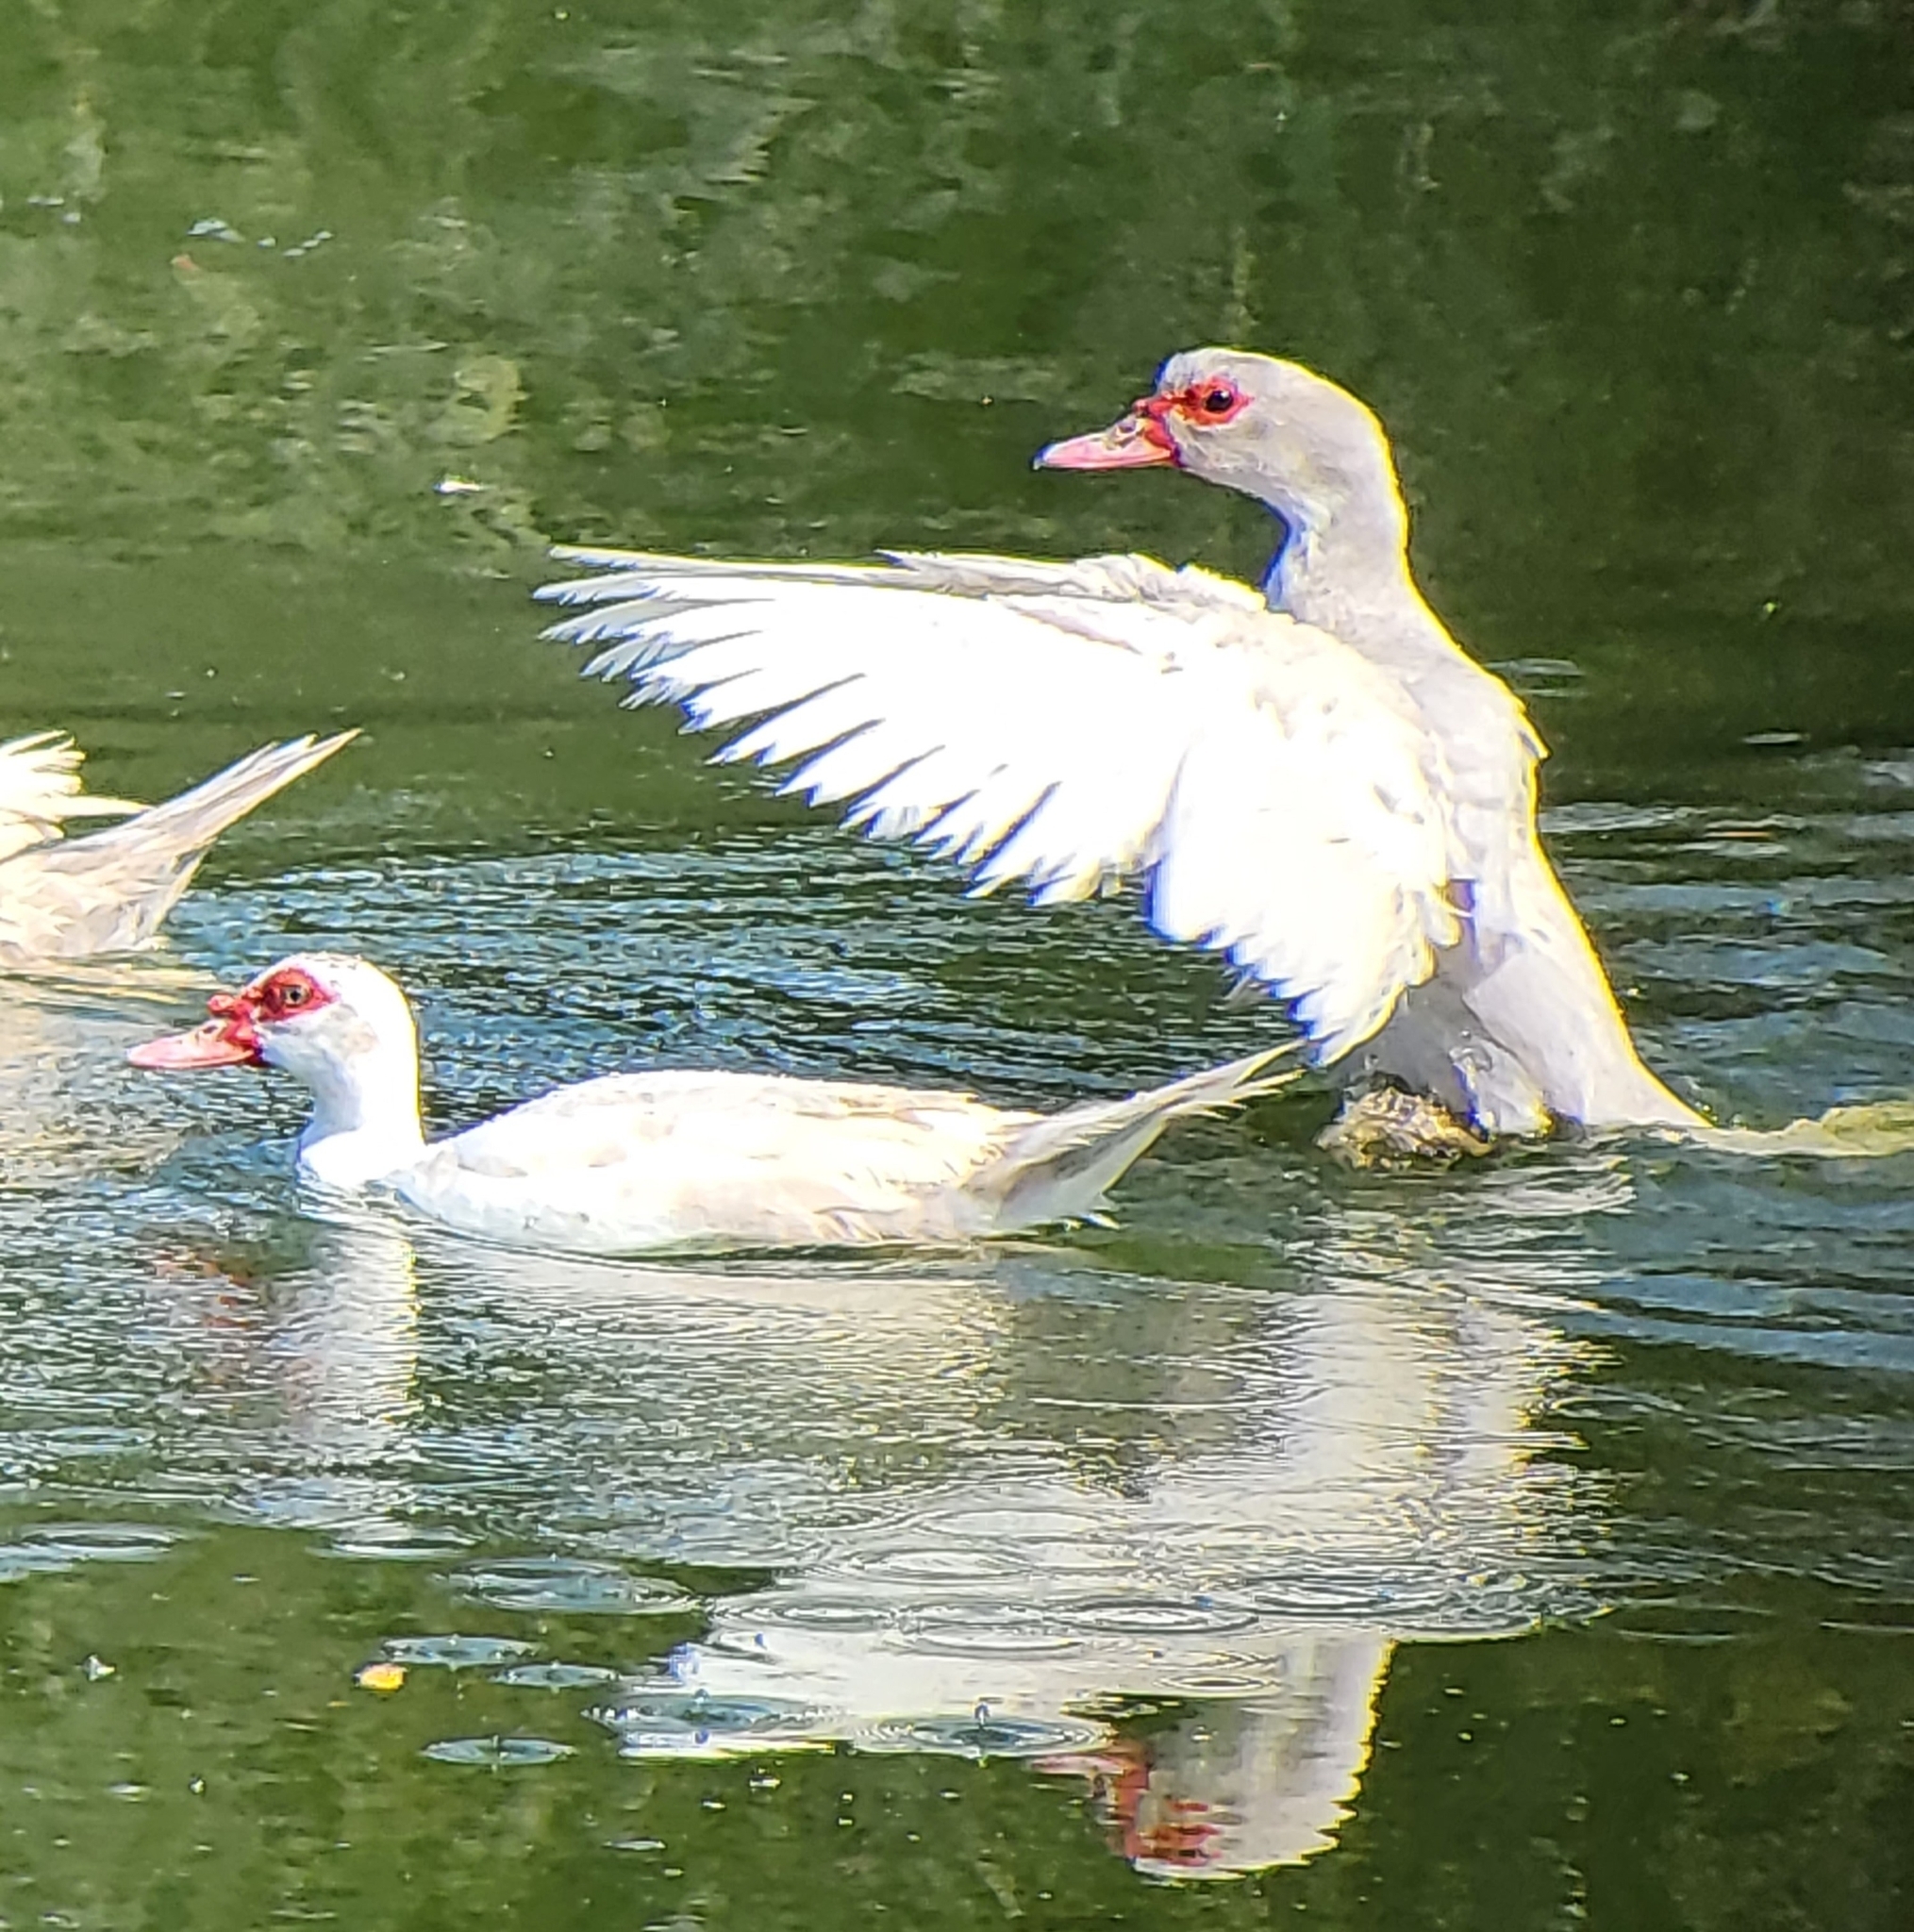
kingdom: Animalia
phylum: Chordata
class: Aves
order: Anseriformes
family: Anatidae
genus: Cairina
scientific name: Cairina moschata
